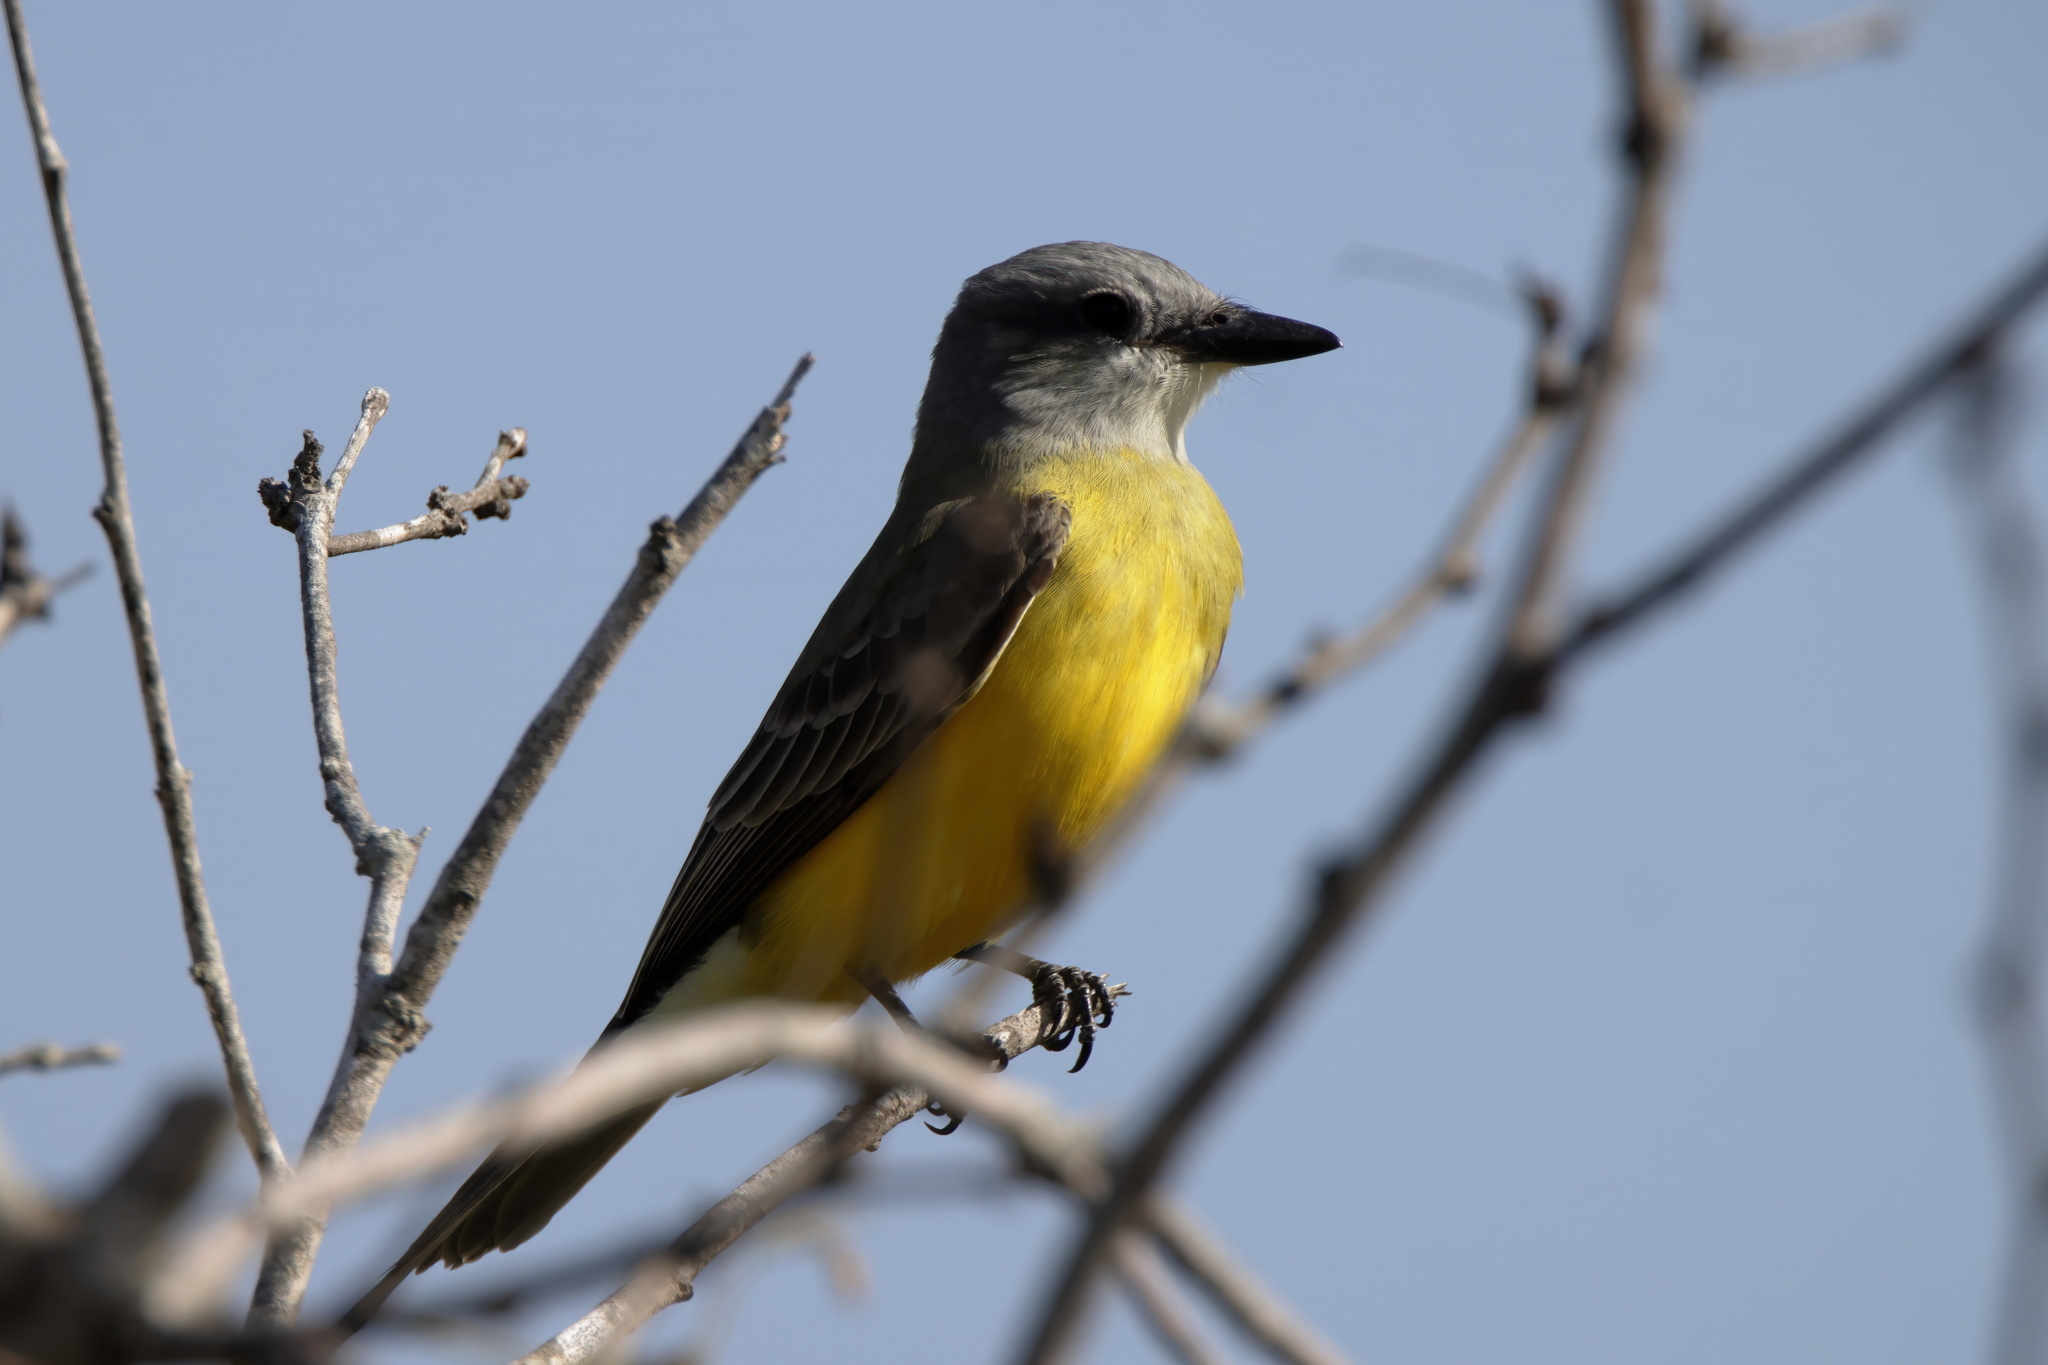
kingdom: Animalia
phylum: Chordata
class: Aves
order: Passeriformes
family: Tyrannidae
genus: Tyrannus
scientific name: Tyrannus couchii
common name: Couch's kingbird
